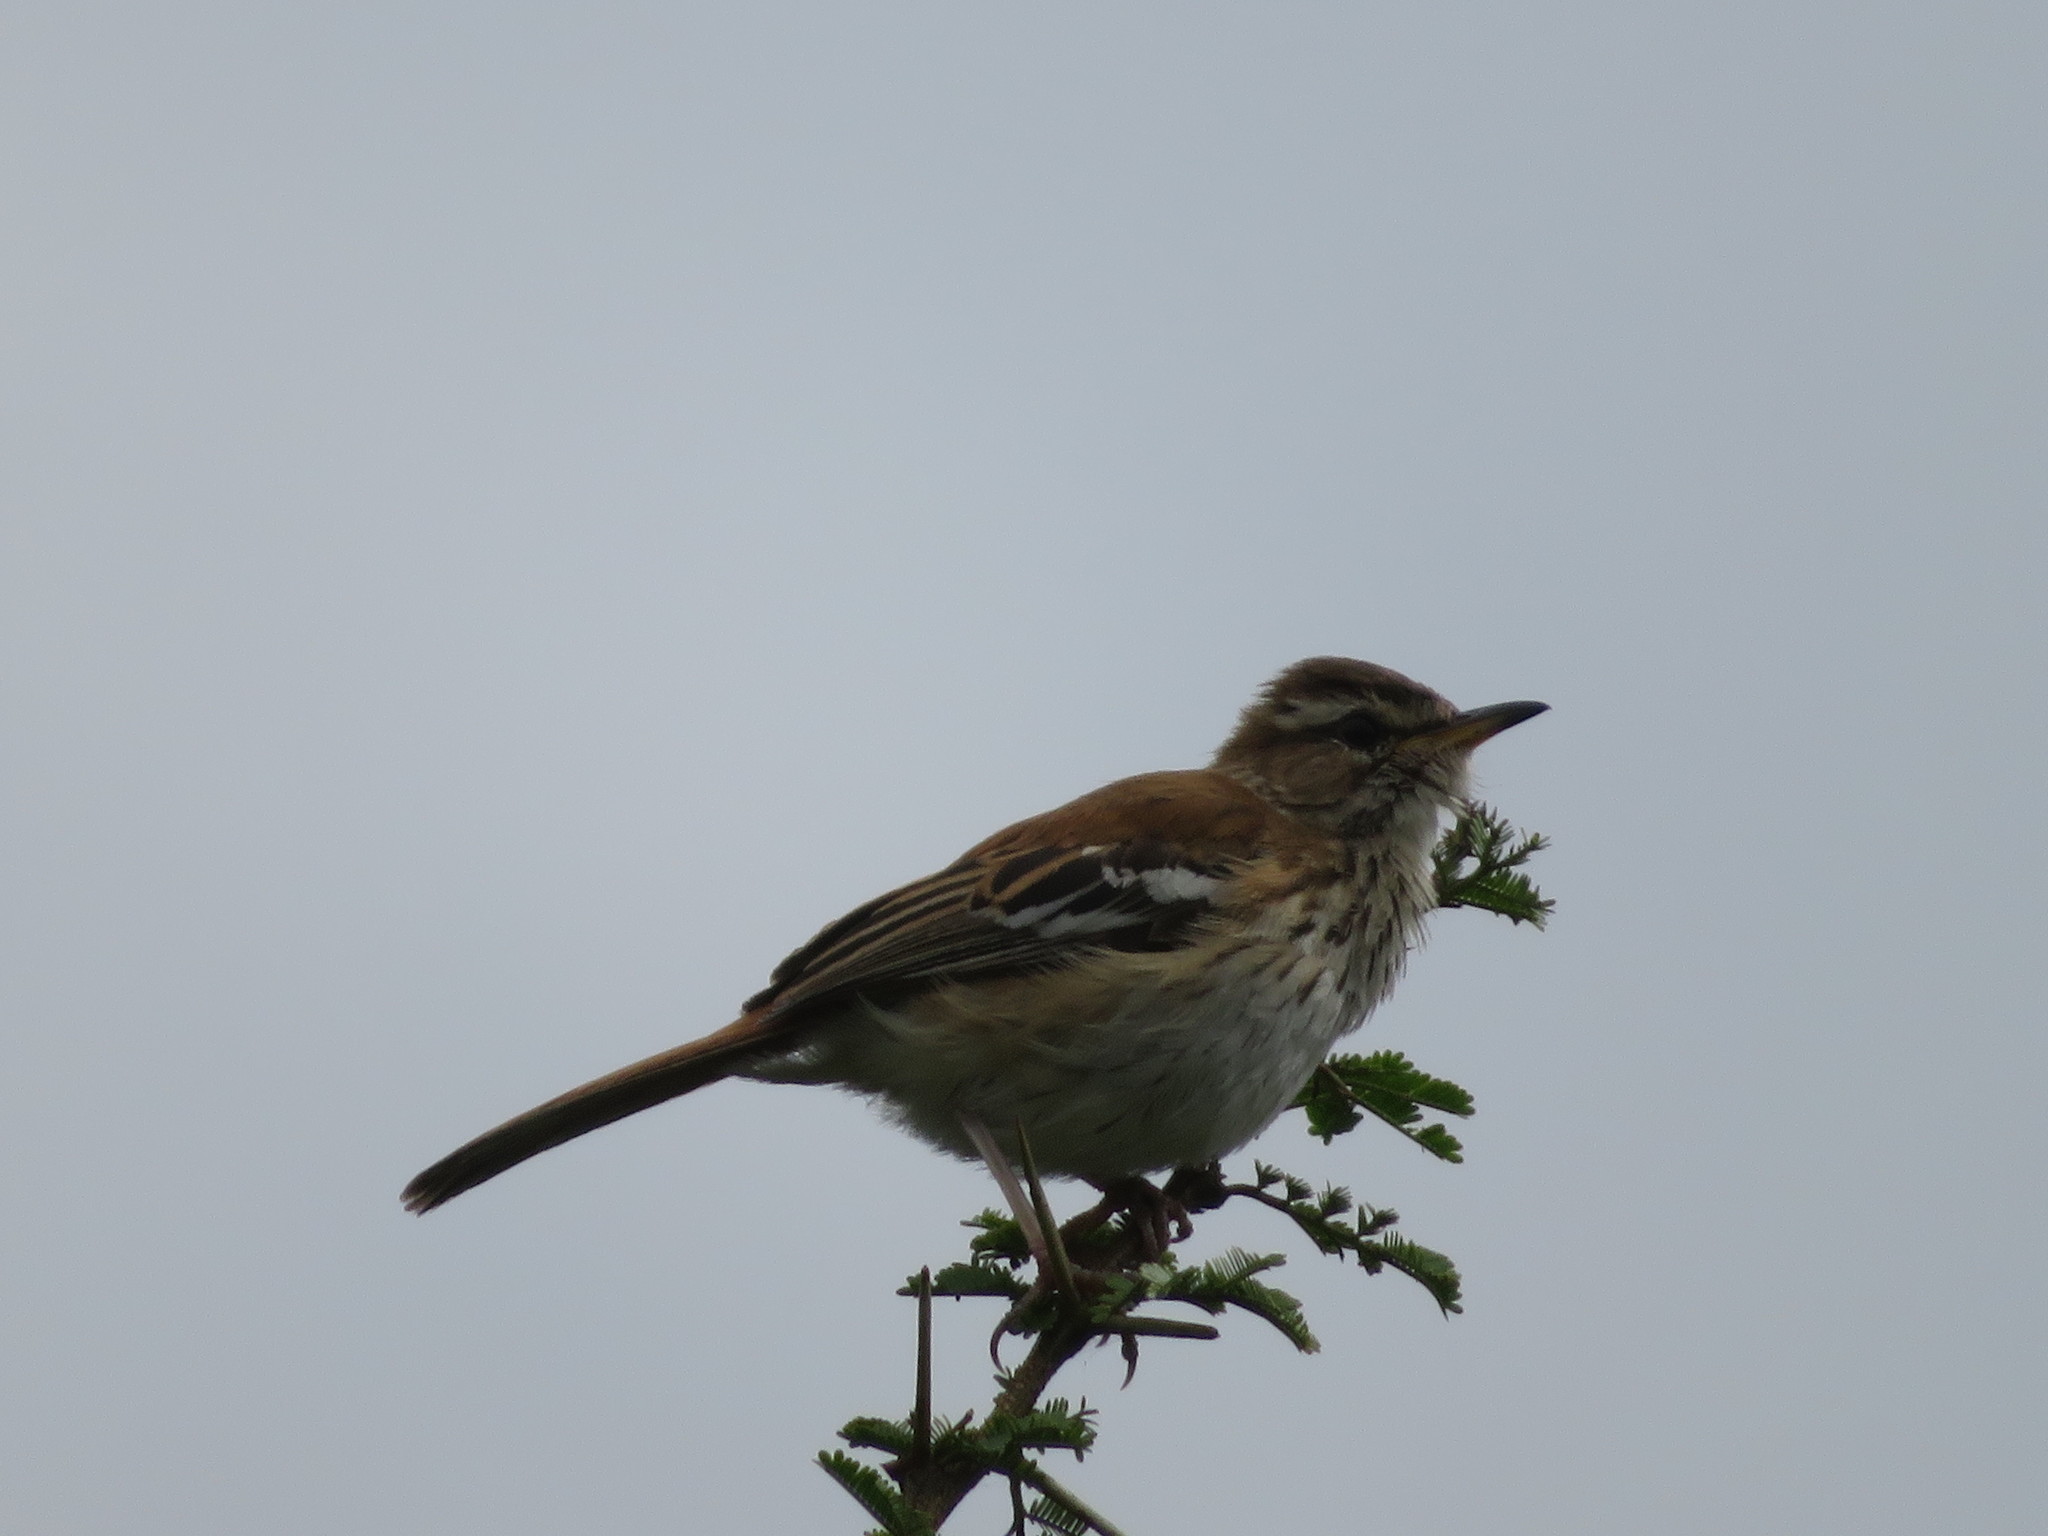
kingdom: Animalia
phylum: Chordata
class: Aves
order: Passeriformes
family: Muscicapidae
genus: Erythropygia
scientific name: Erythropygia leucophrys
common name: White-browed scrub robin
